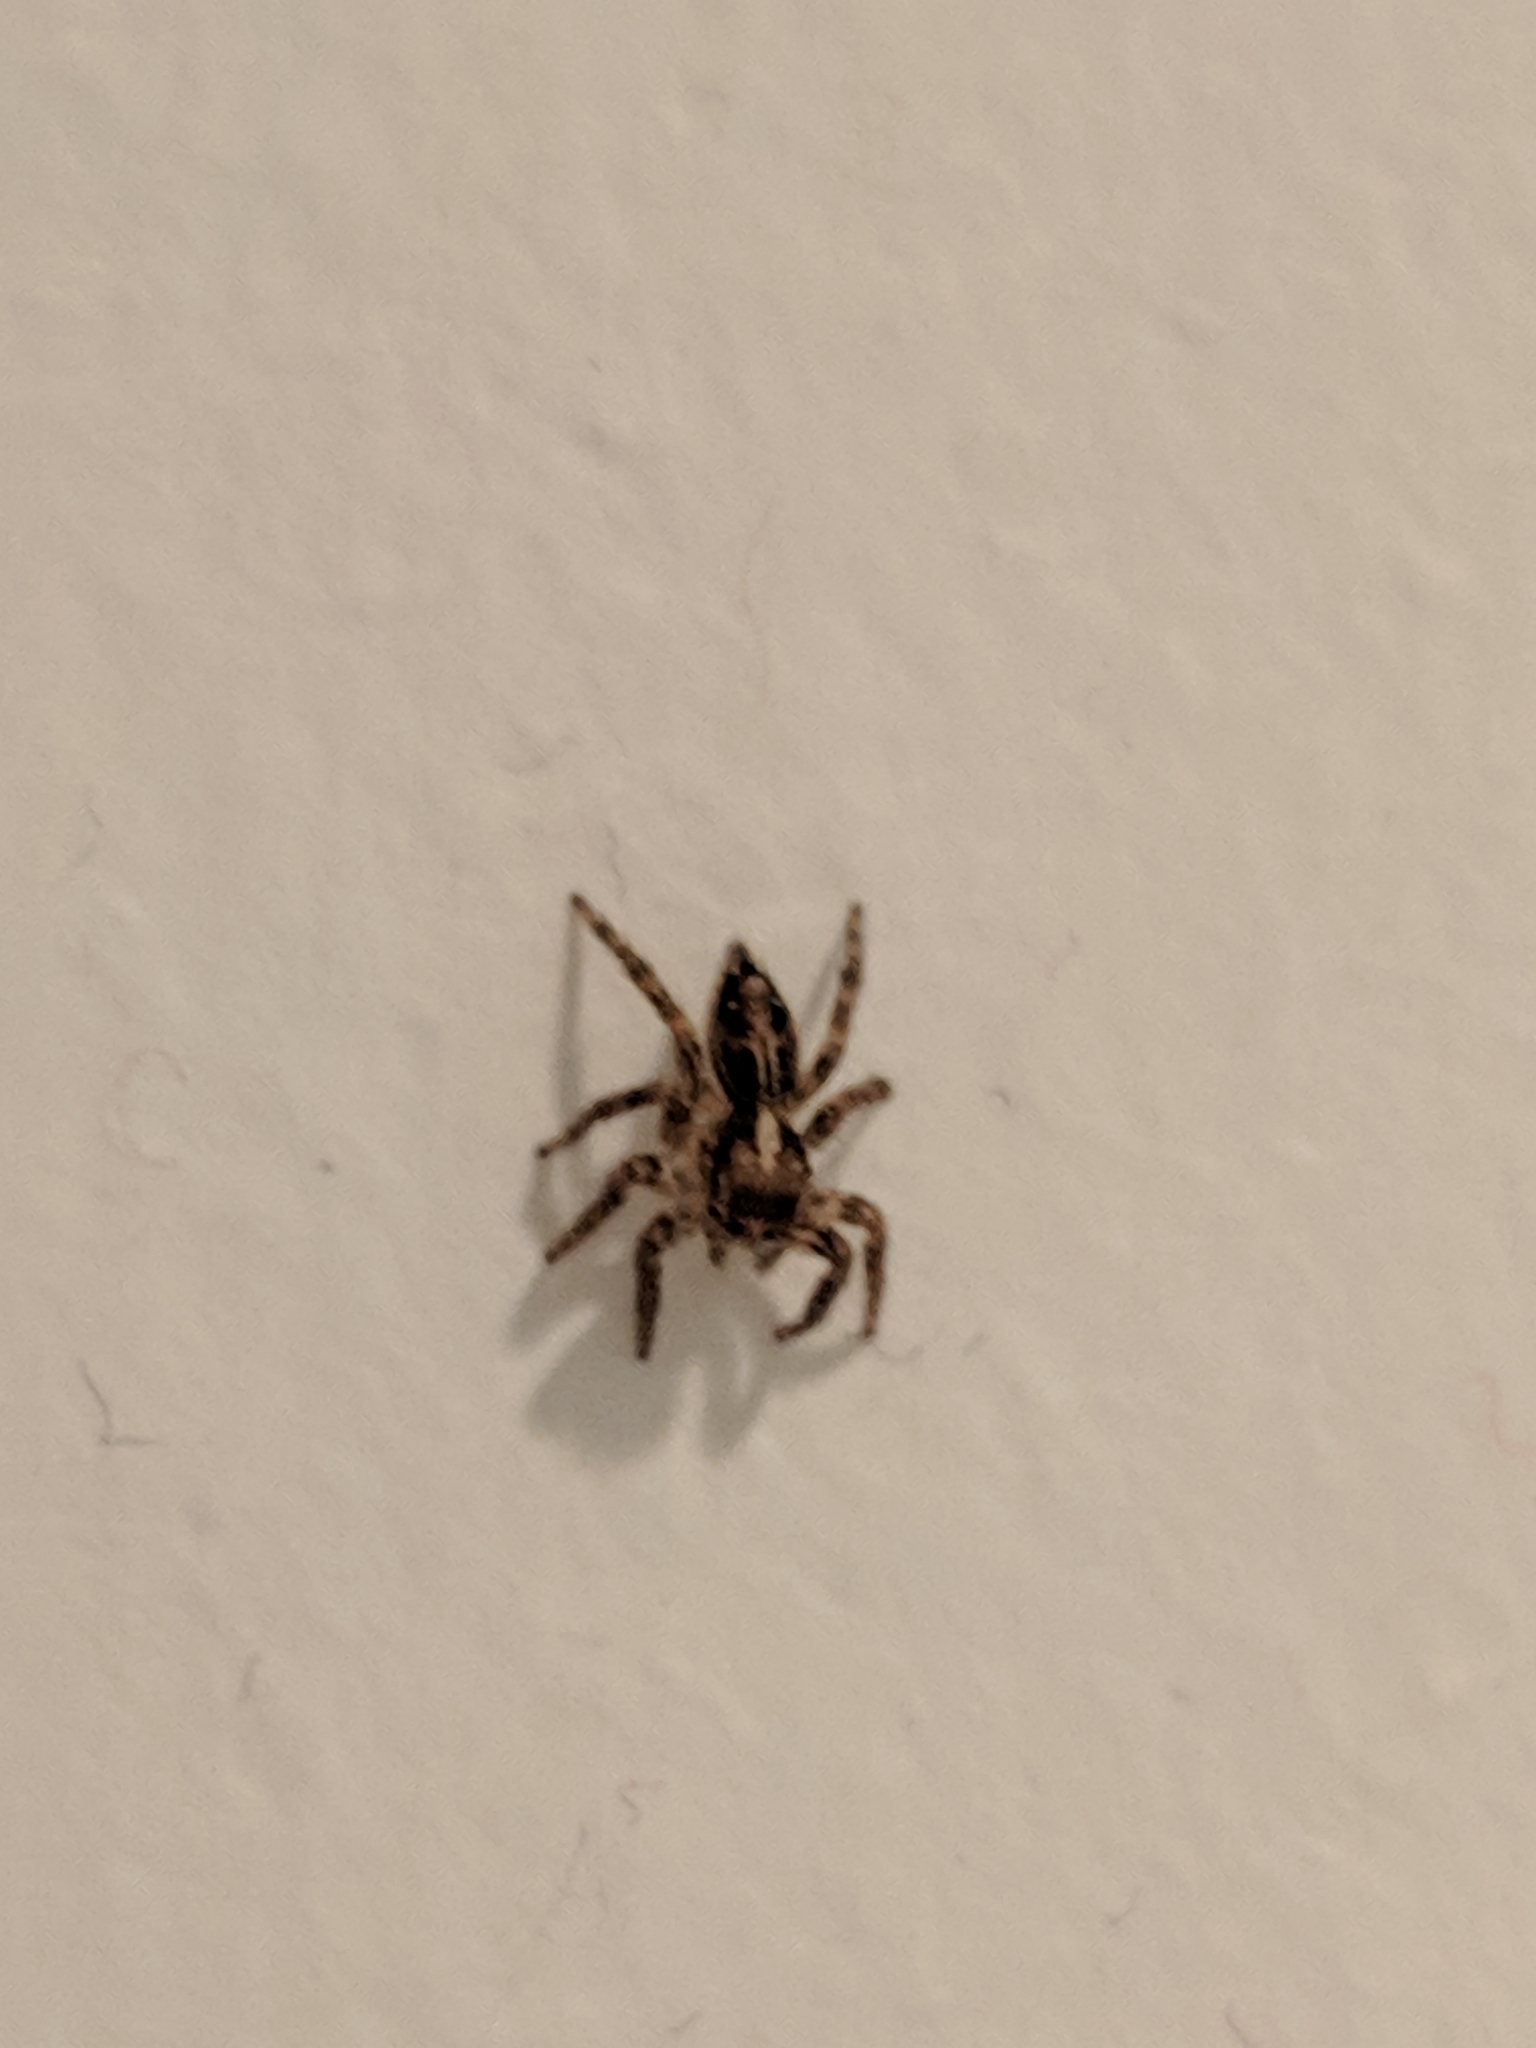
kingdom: Animalia
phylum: Arthropoda
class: Arachnida
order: Araneae
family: Salticidae
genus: Plexippus
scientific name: Plexippus paykulli
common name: Pantropical jumper
